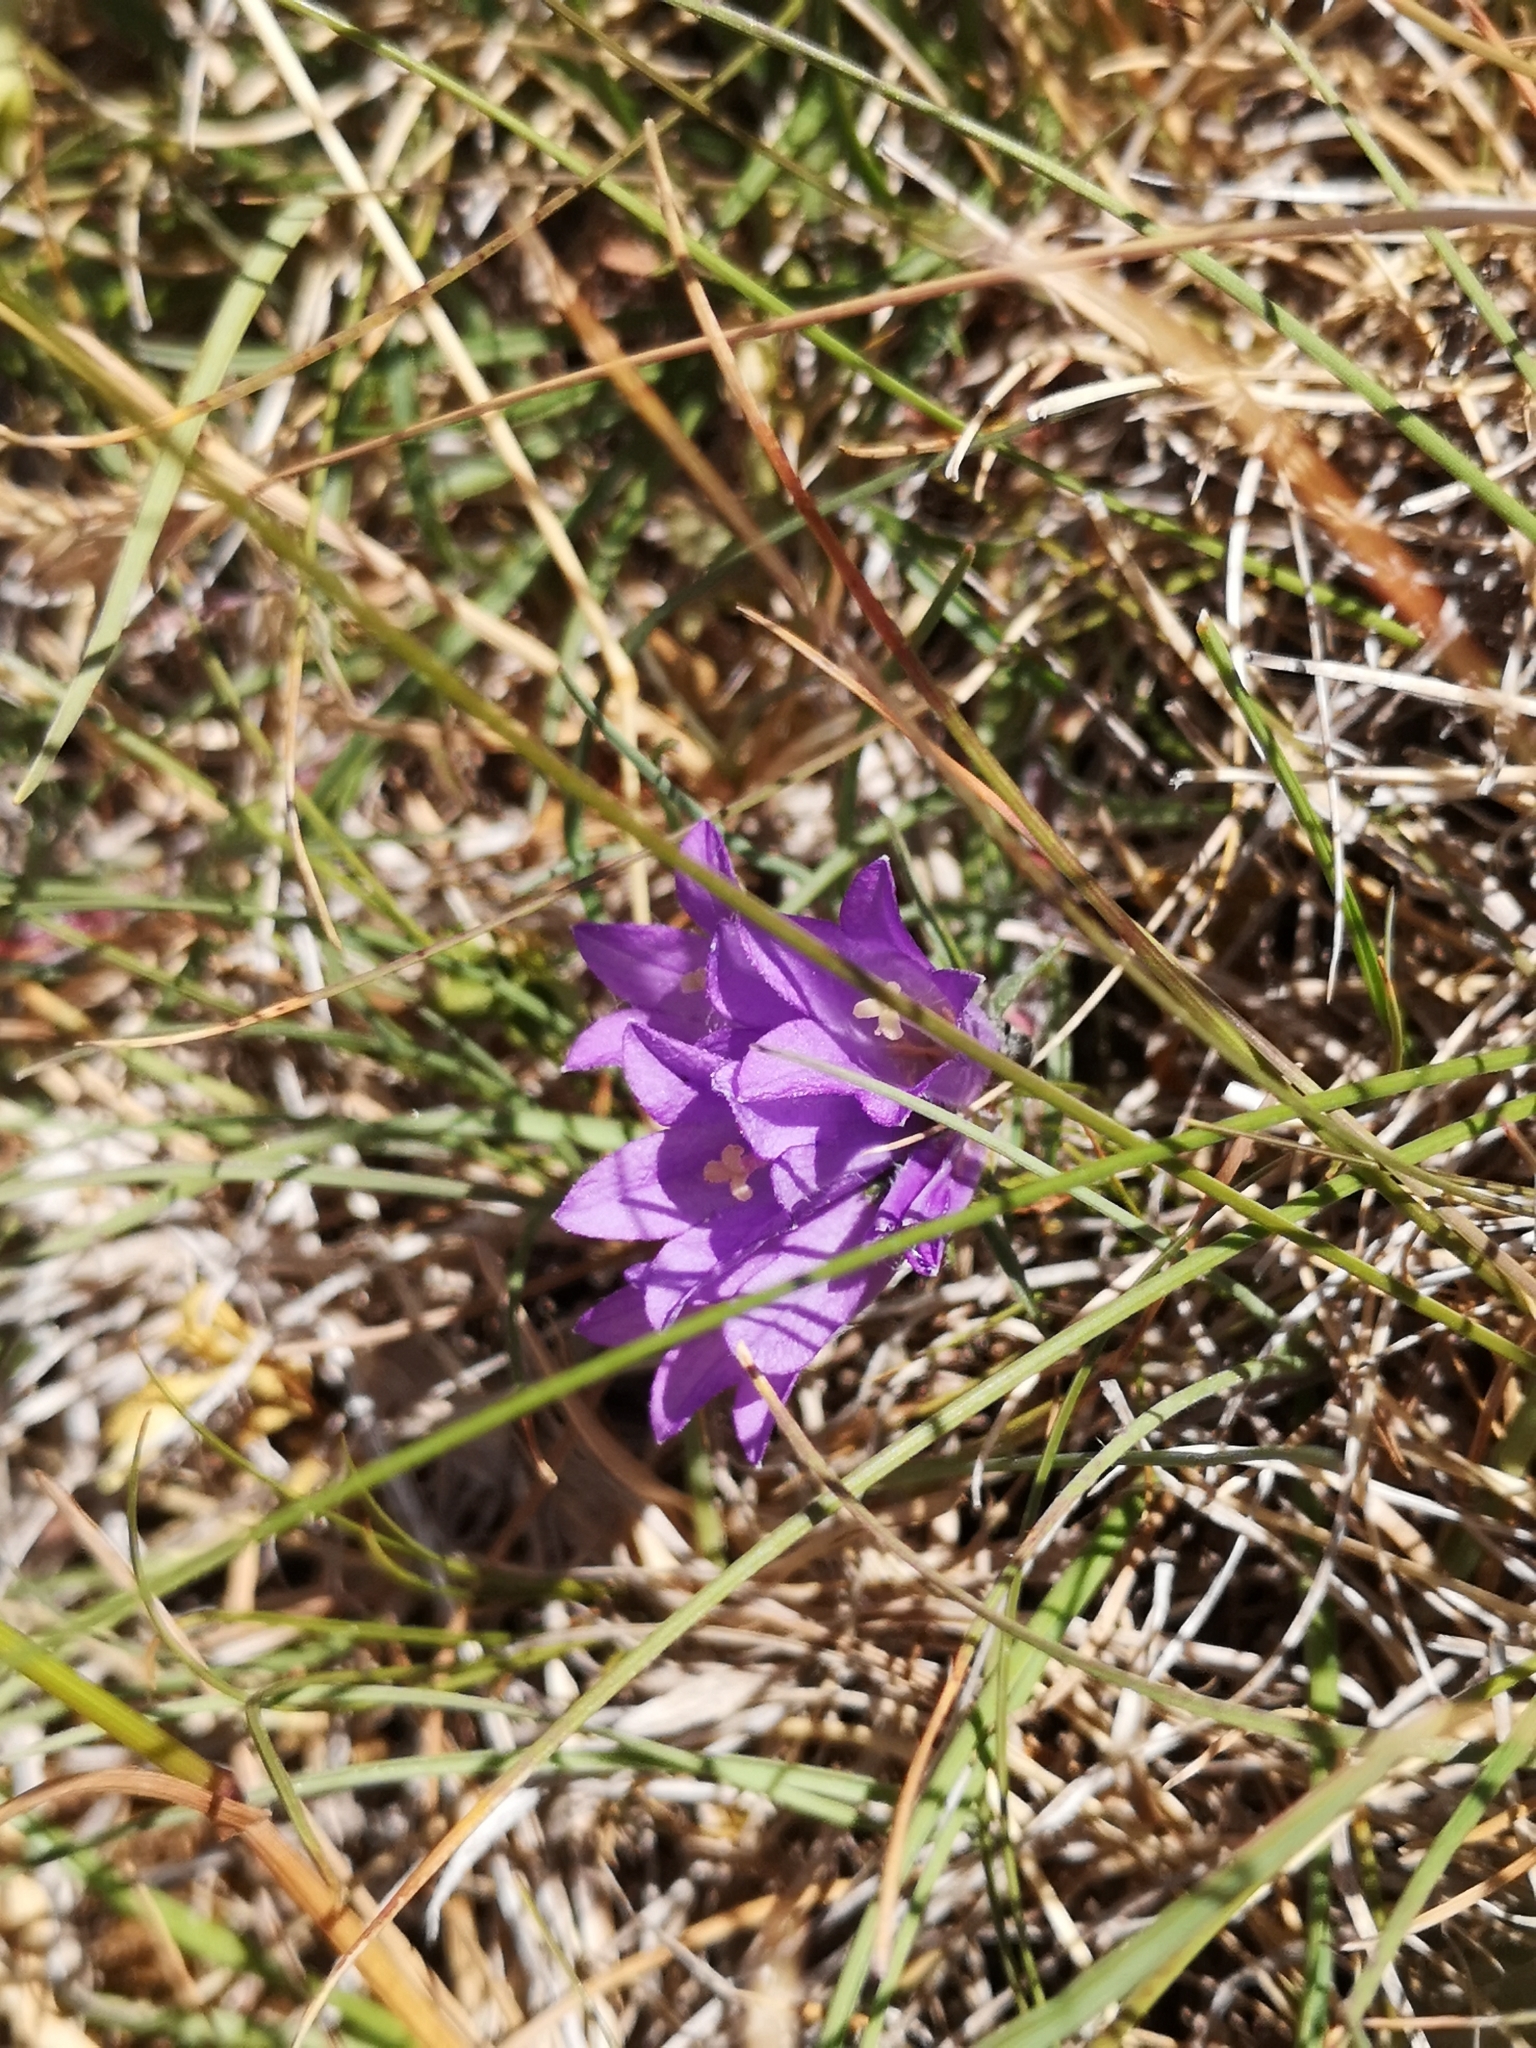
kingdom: Plantae
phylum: Tracheophyta
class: Magnoliopsida
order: Asterales
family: Campanulaceae
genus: Edraianthus
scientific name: Edraianthus graminifolius
